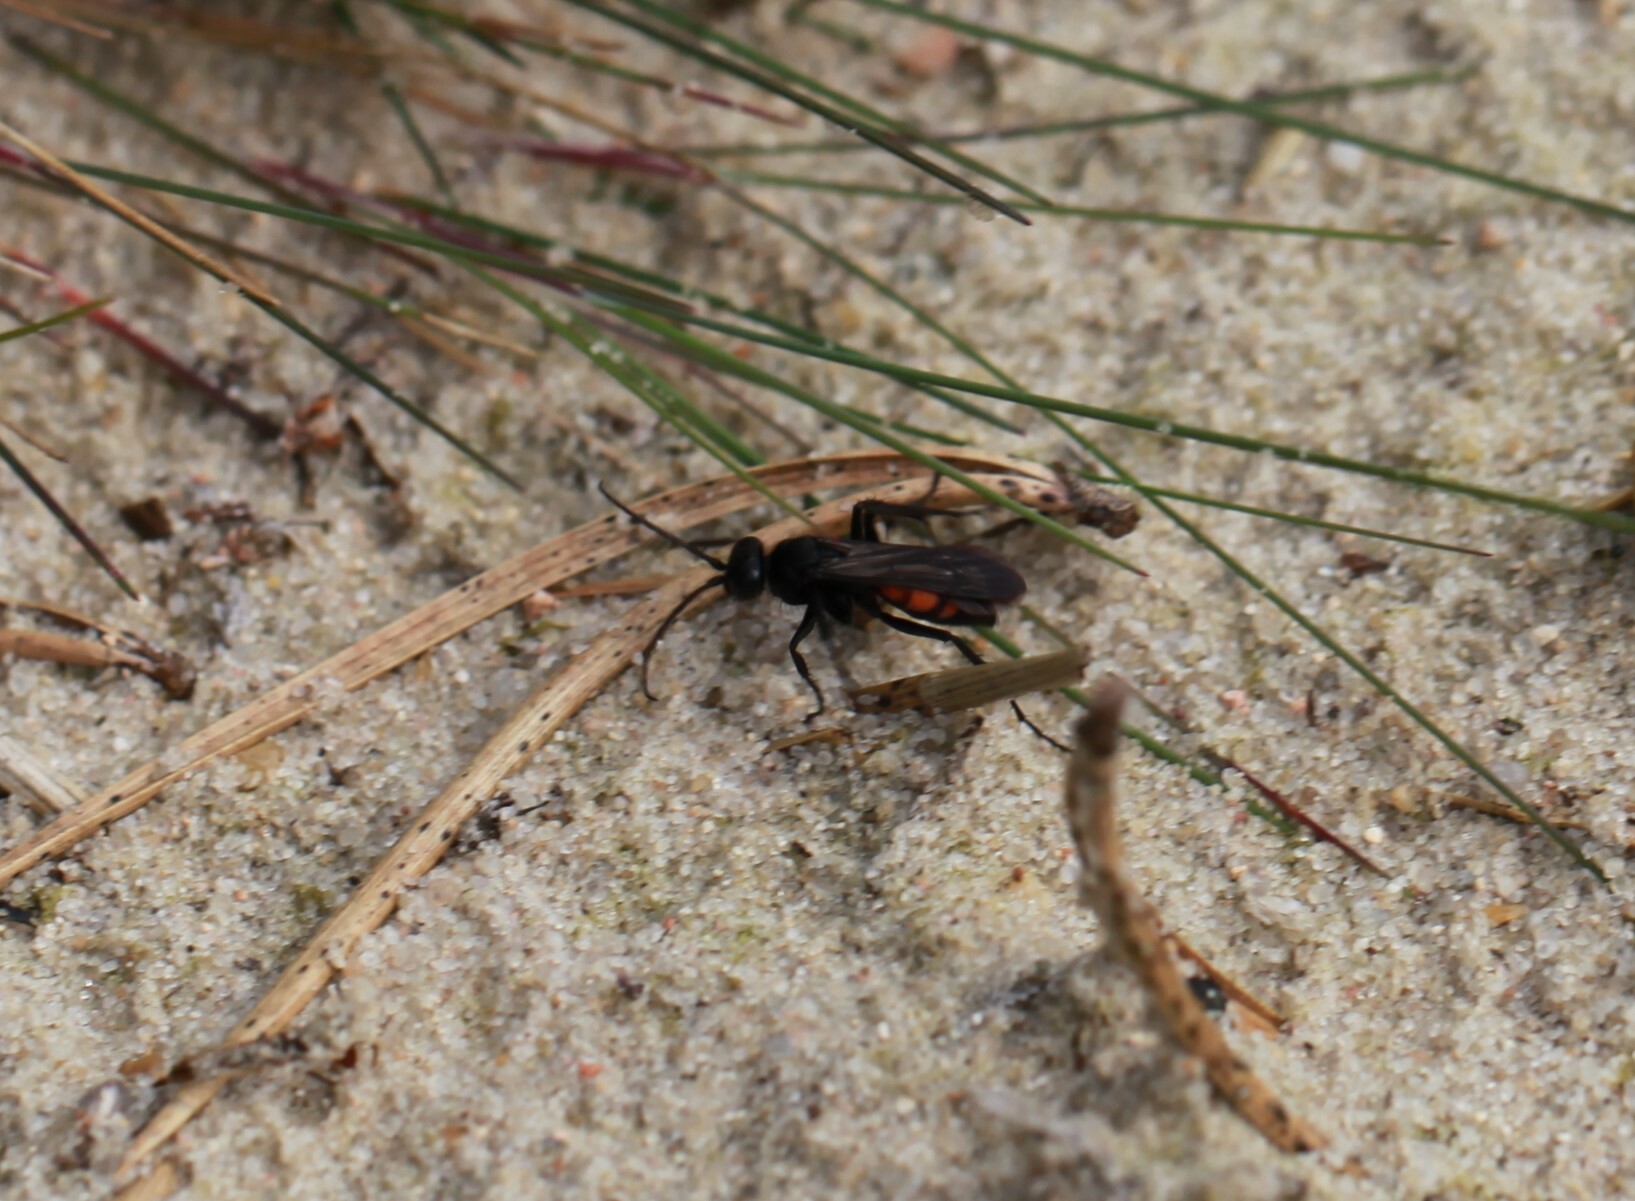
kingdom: Animalia
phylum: Arthropoda
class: Insecta
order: Hymenoptera
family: Pompilidae
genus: Anoplius
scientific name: Anoplius viaticus
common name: Black banded spider wasp
